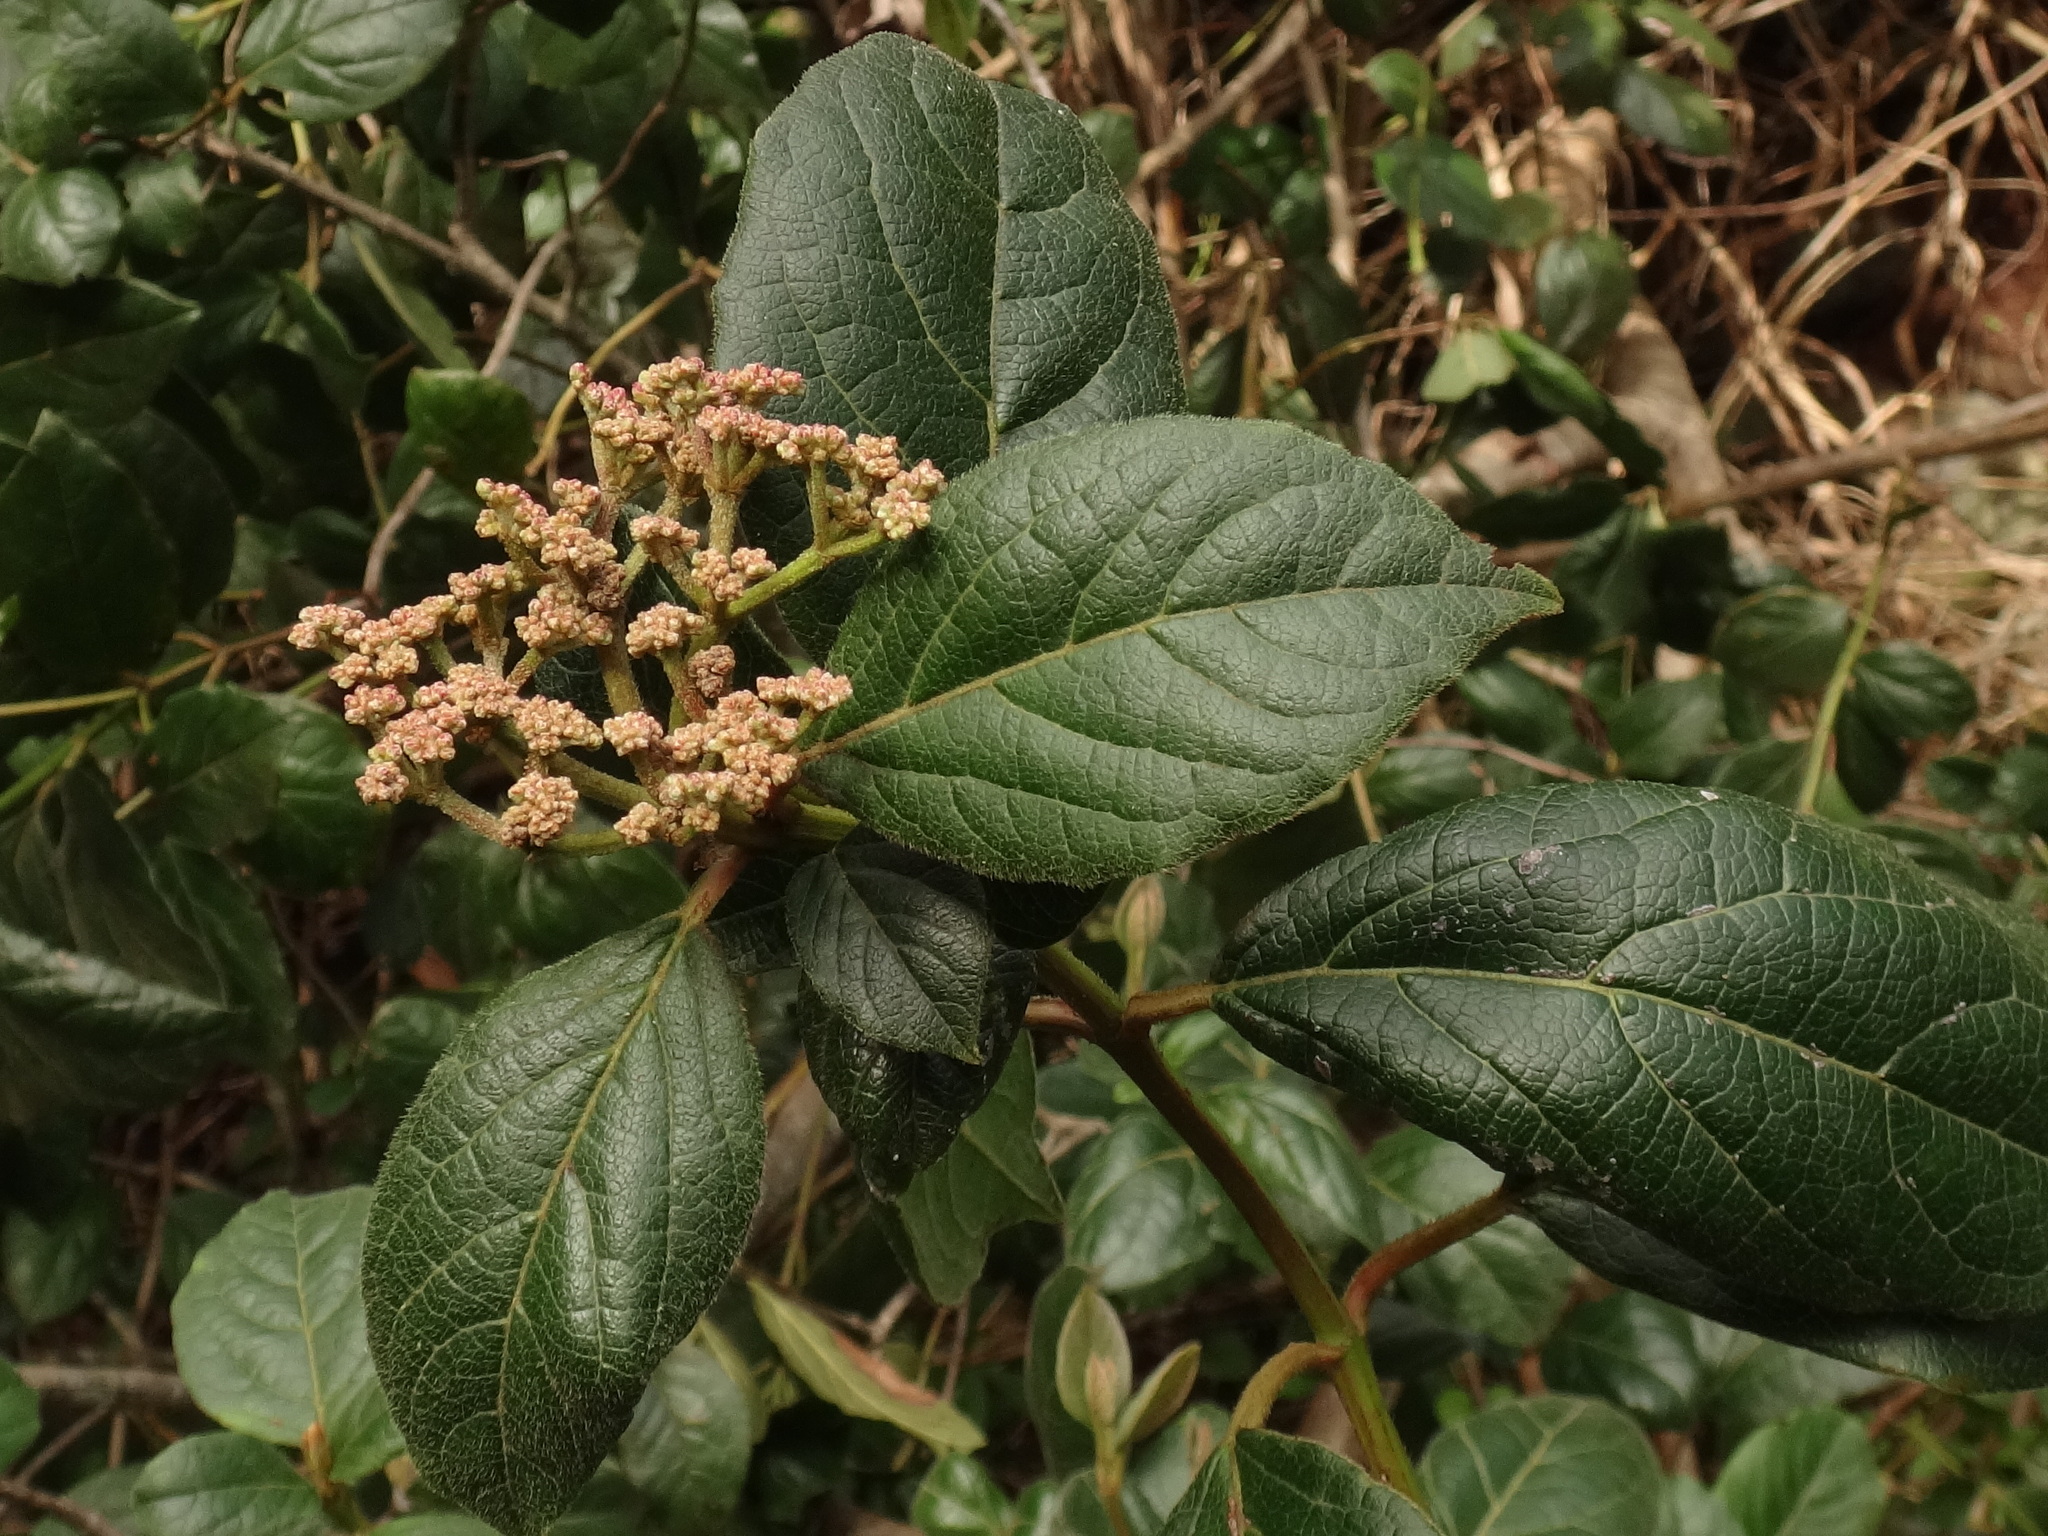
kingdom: Plantae
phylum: Tracheophyta
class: Magnoliopsida
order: Dipsacales
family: Viburnaceae
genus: Viburnum
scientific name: Viburnum rugosum
